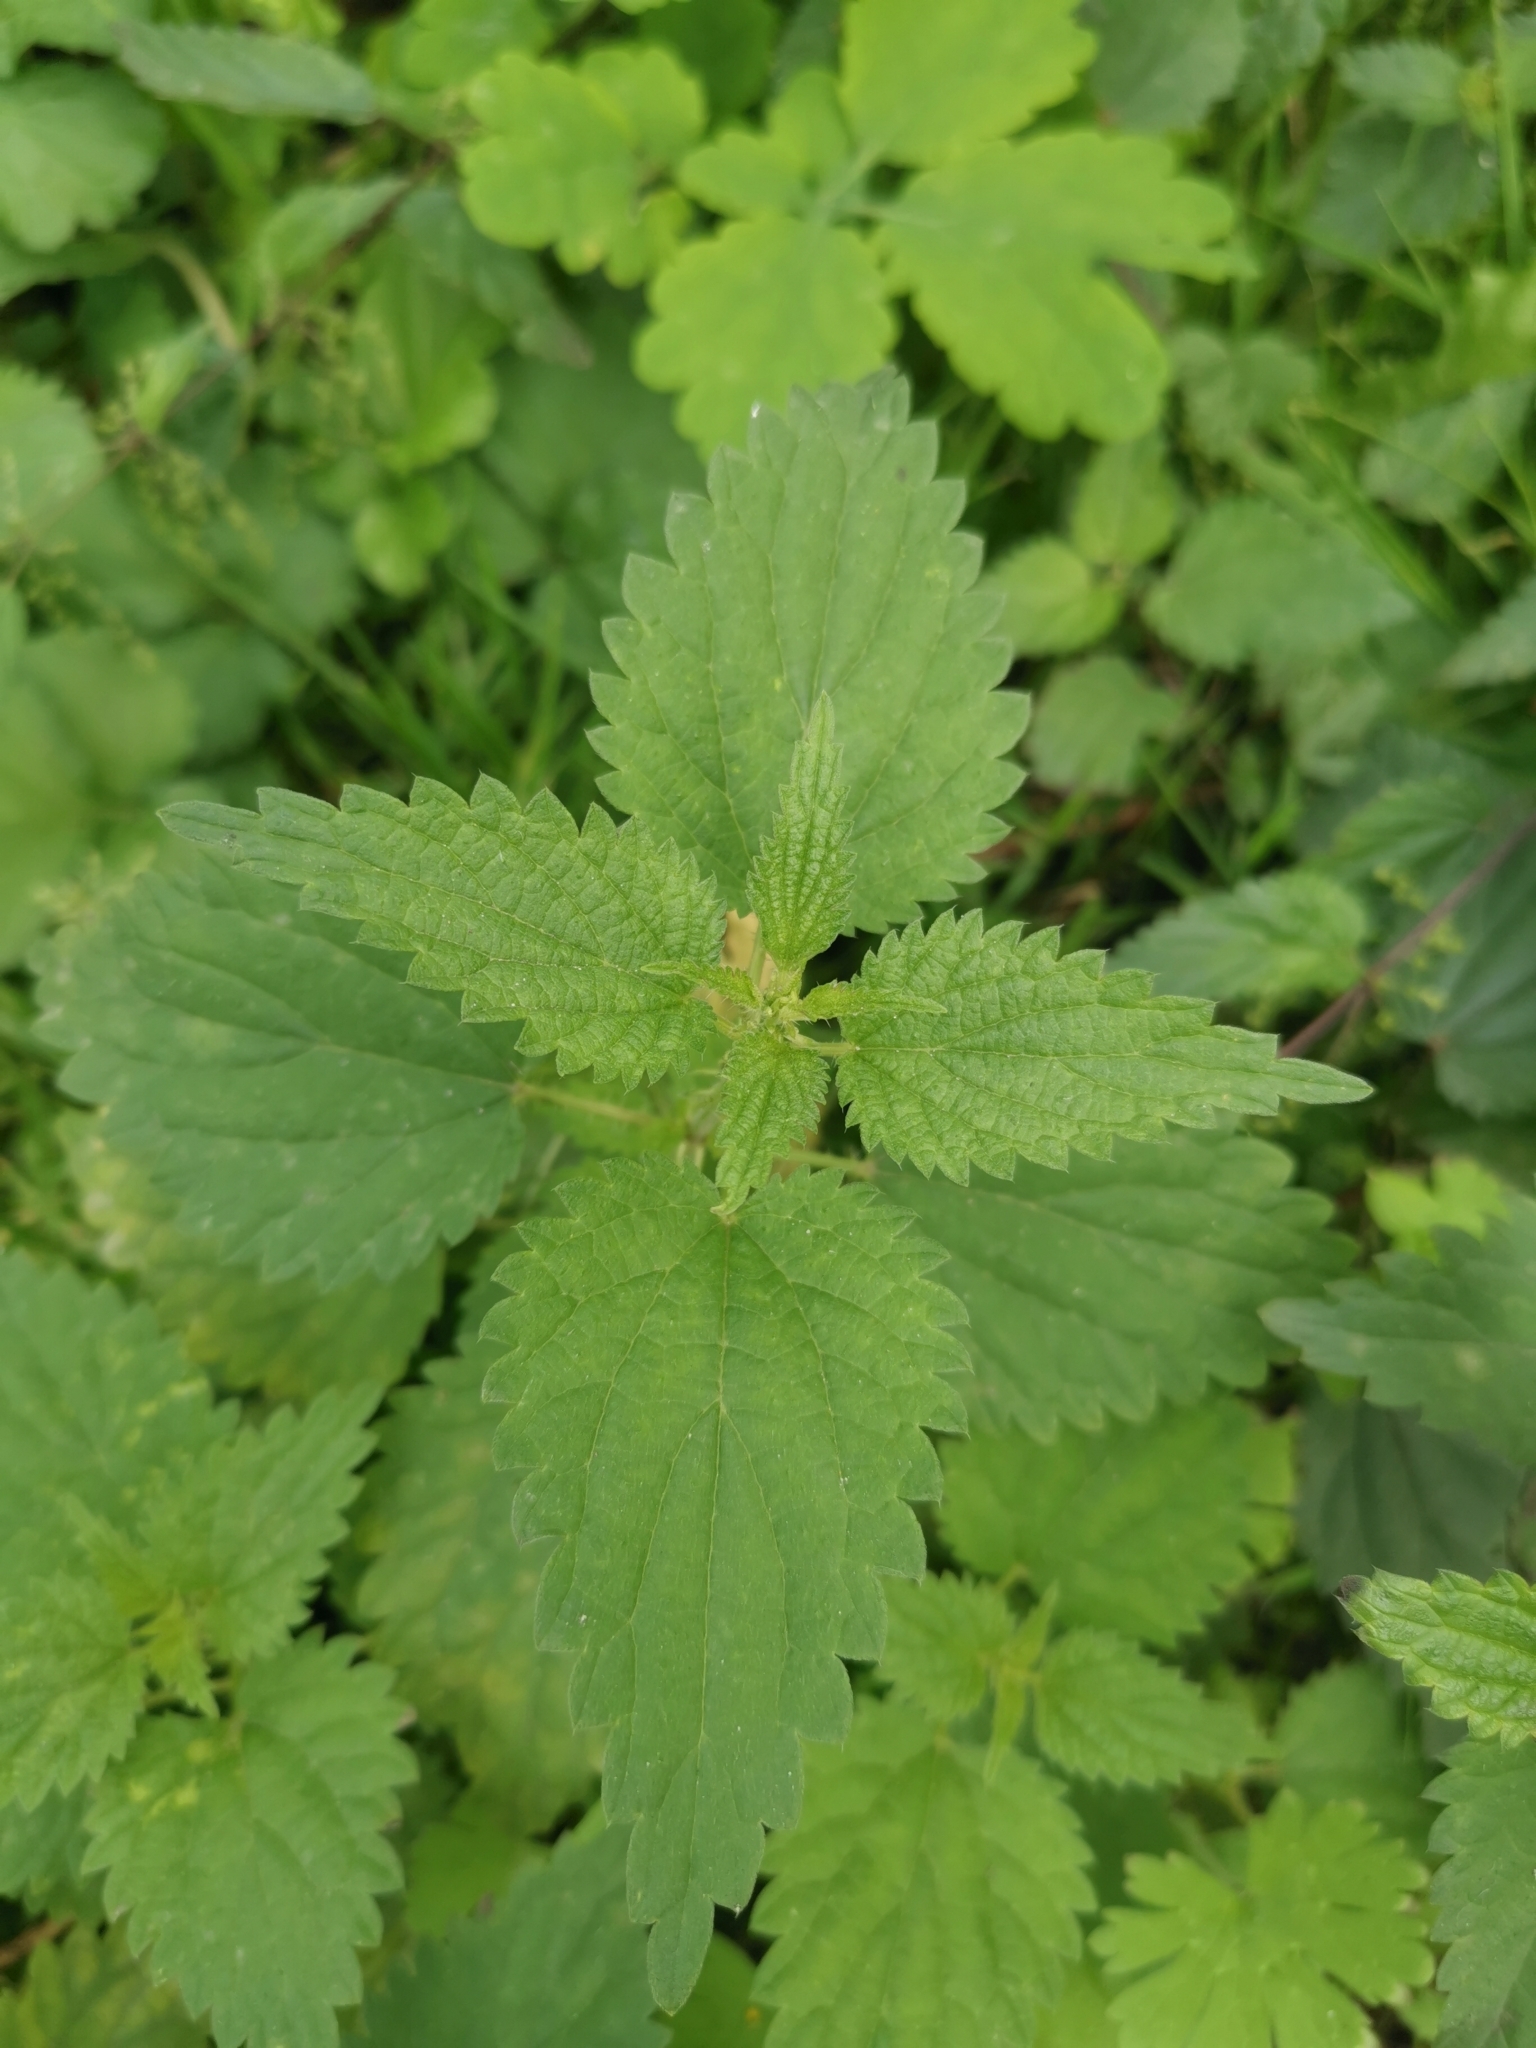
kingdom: Plantae
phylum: Tracheophyta
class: Magnoliopsida
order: Rosales
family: Urticaceae
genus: Urtica
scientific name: Urtica dioica
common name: Common nettle
